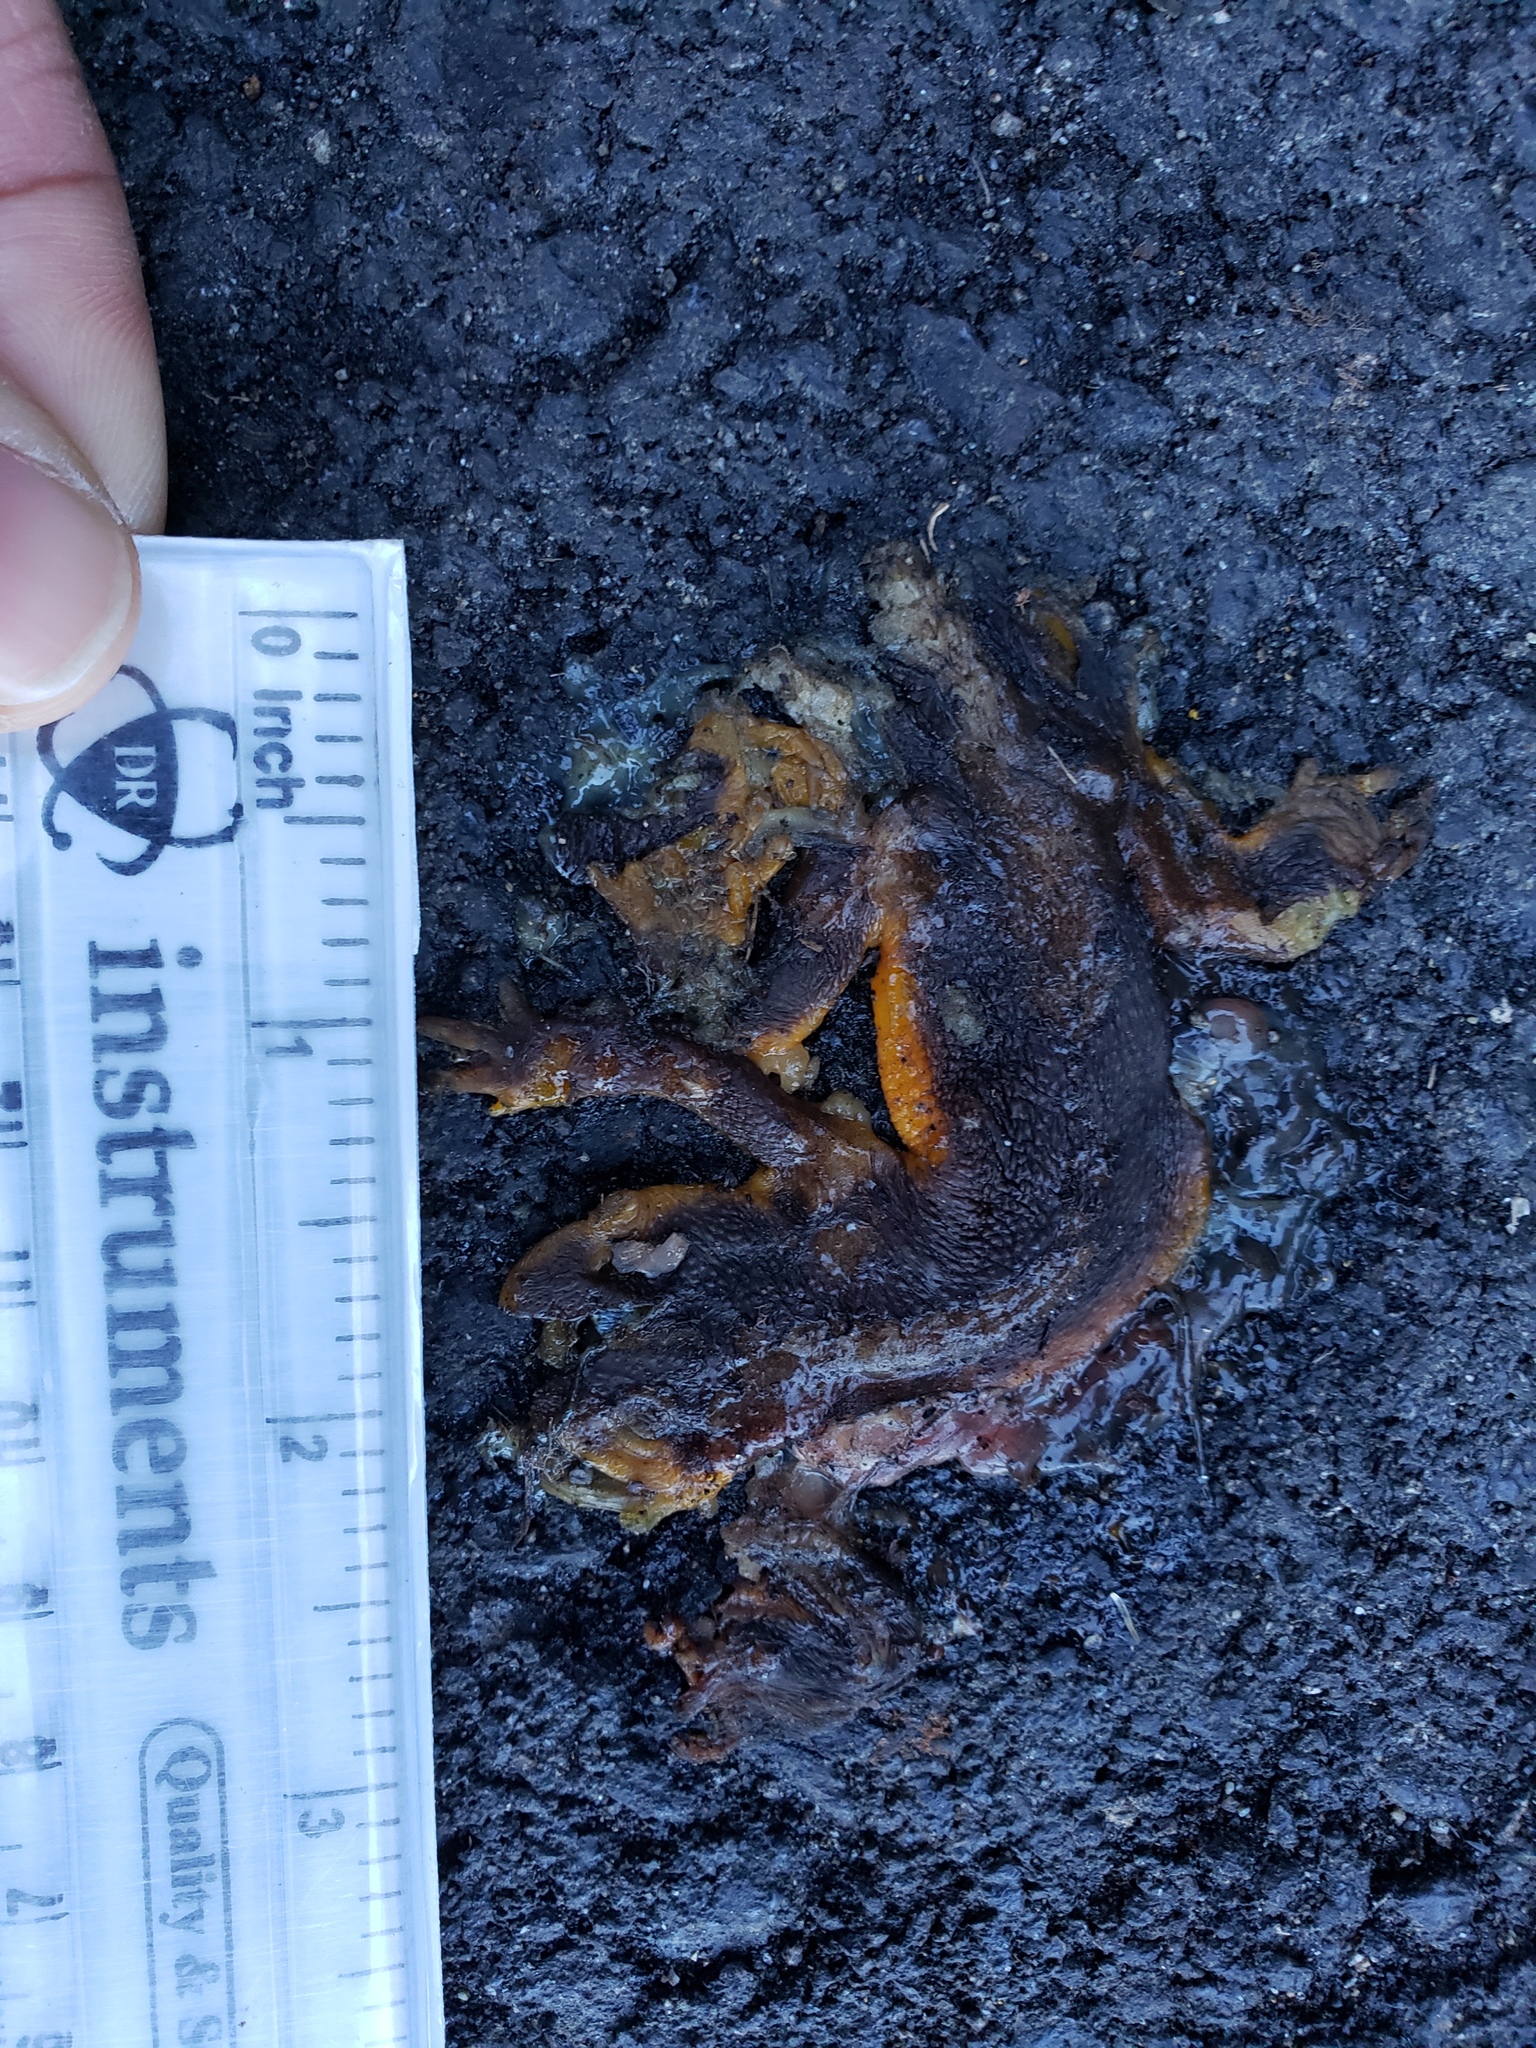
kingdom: Animalia
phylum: Chordata
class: Amphibia
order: Caudata
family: Salamandridae
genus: Taricha
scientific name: Taricha
